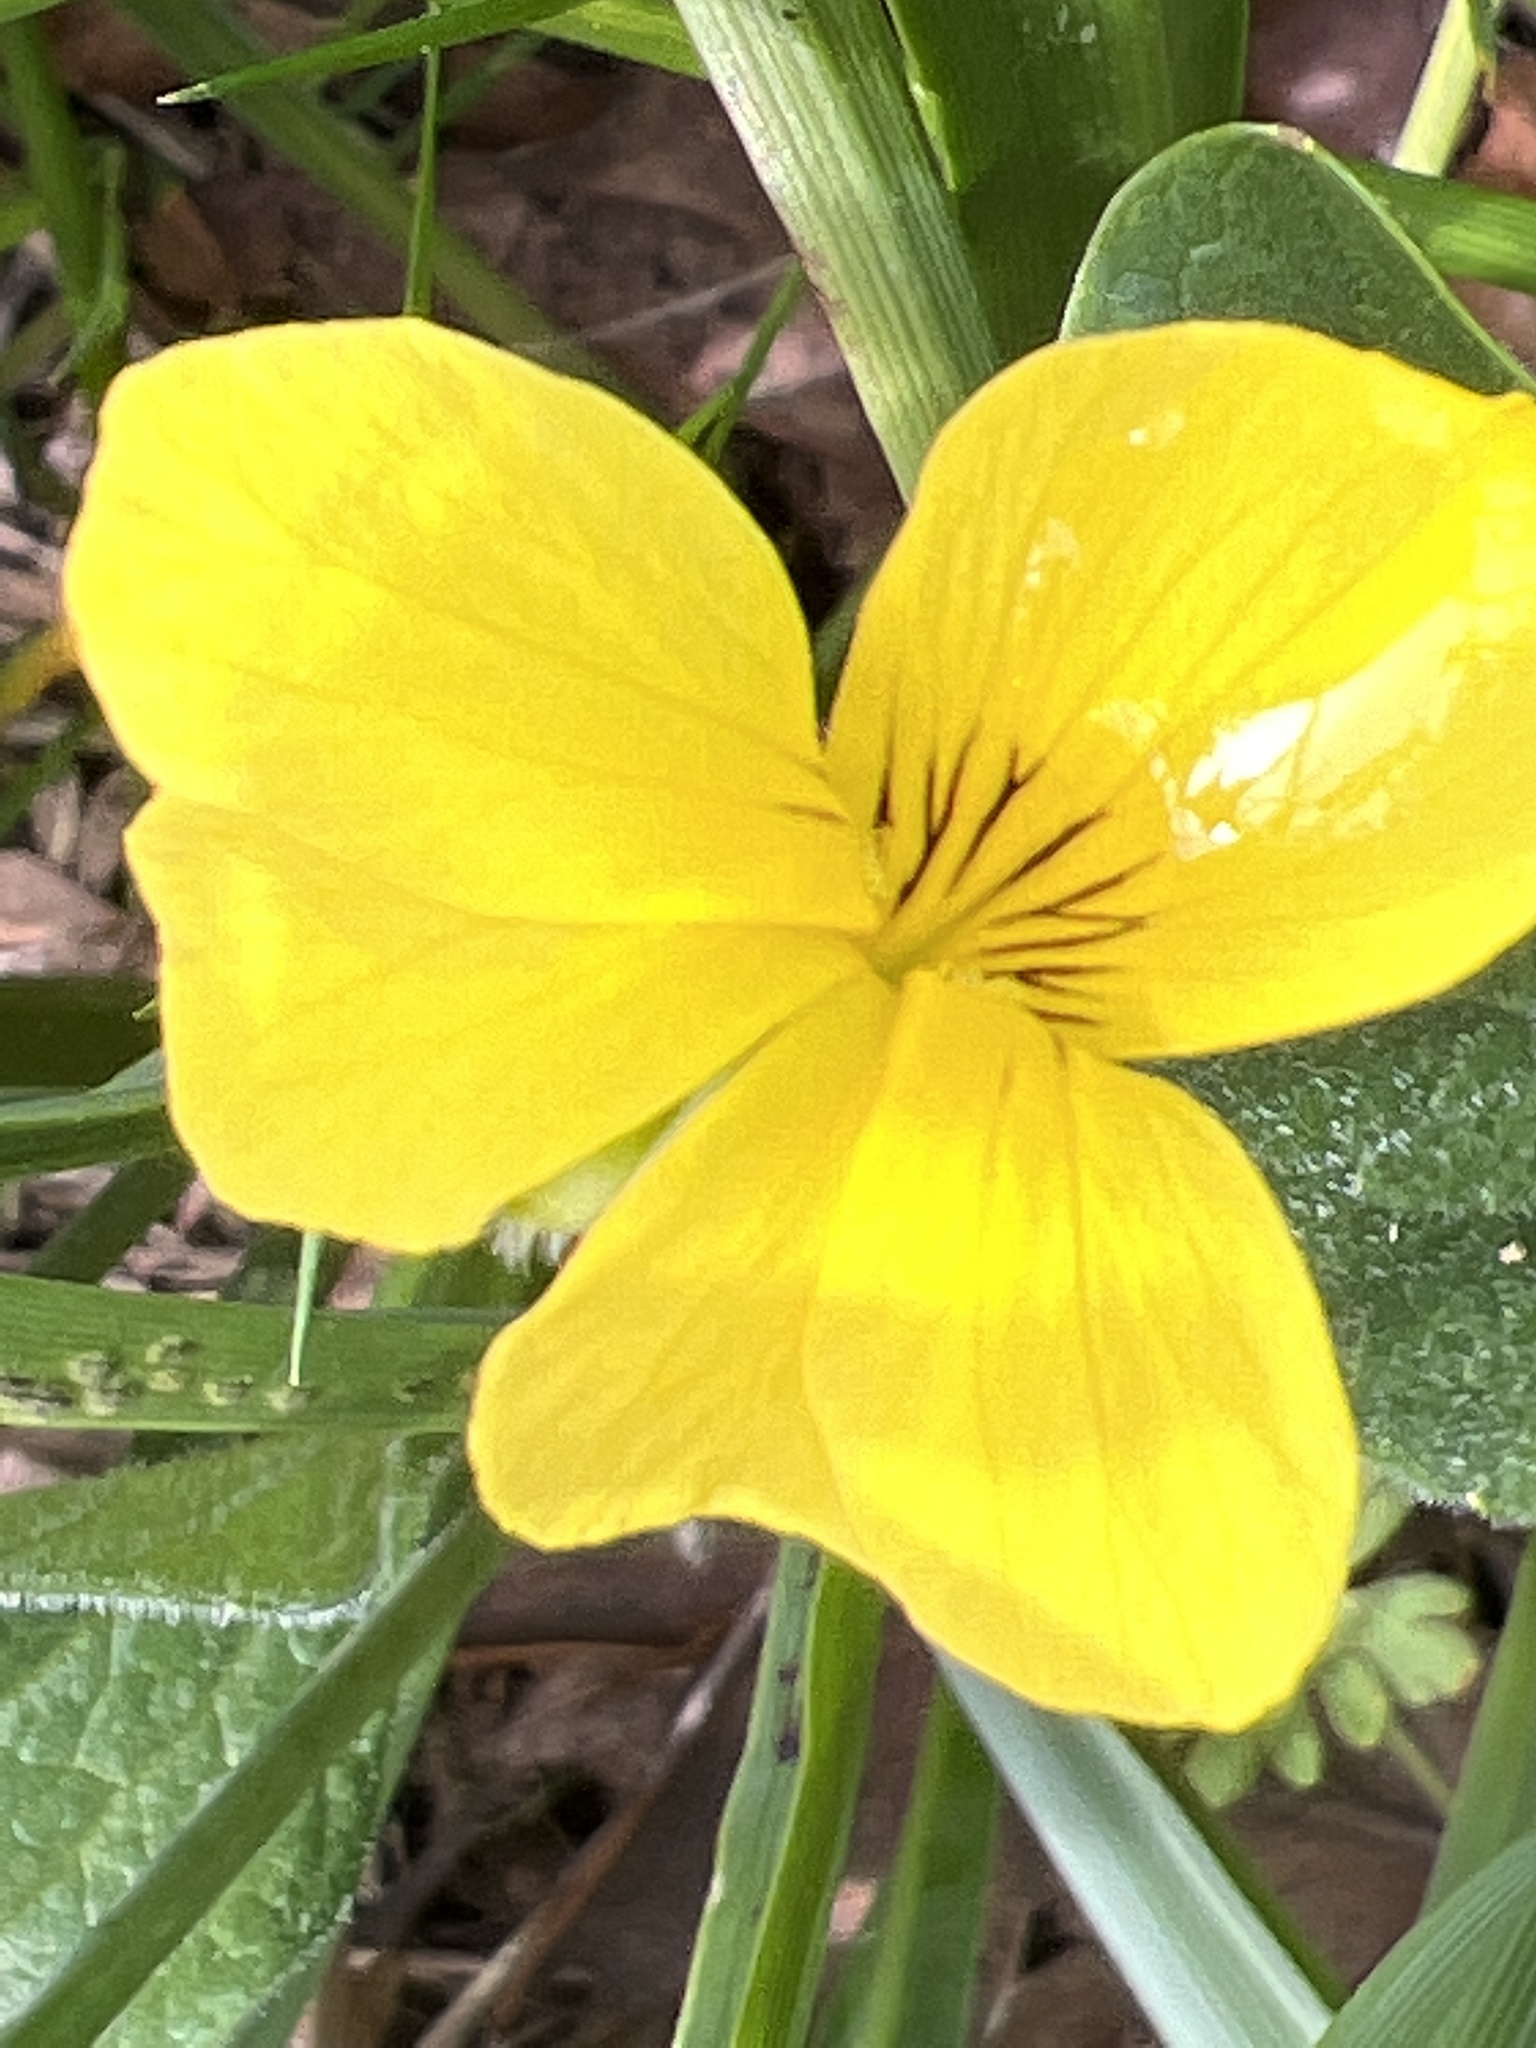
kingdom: Plantae
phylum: Tracheophyta
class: Magnoliopsida
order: Malpighiales
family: Violaceae
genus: Viola
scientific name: Viola praemorsa
